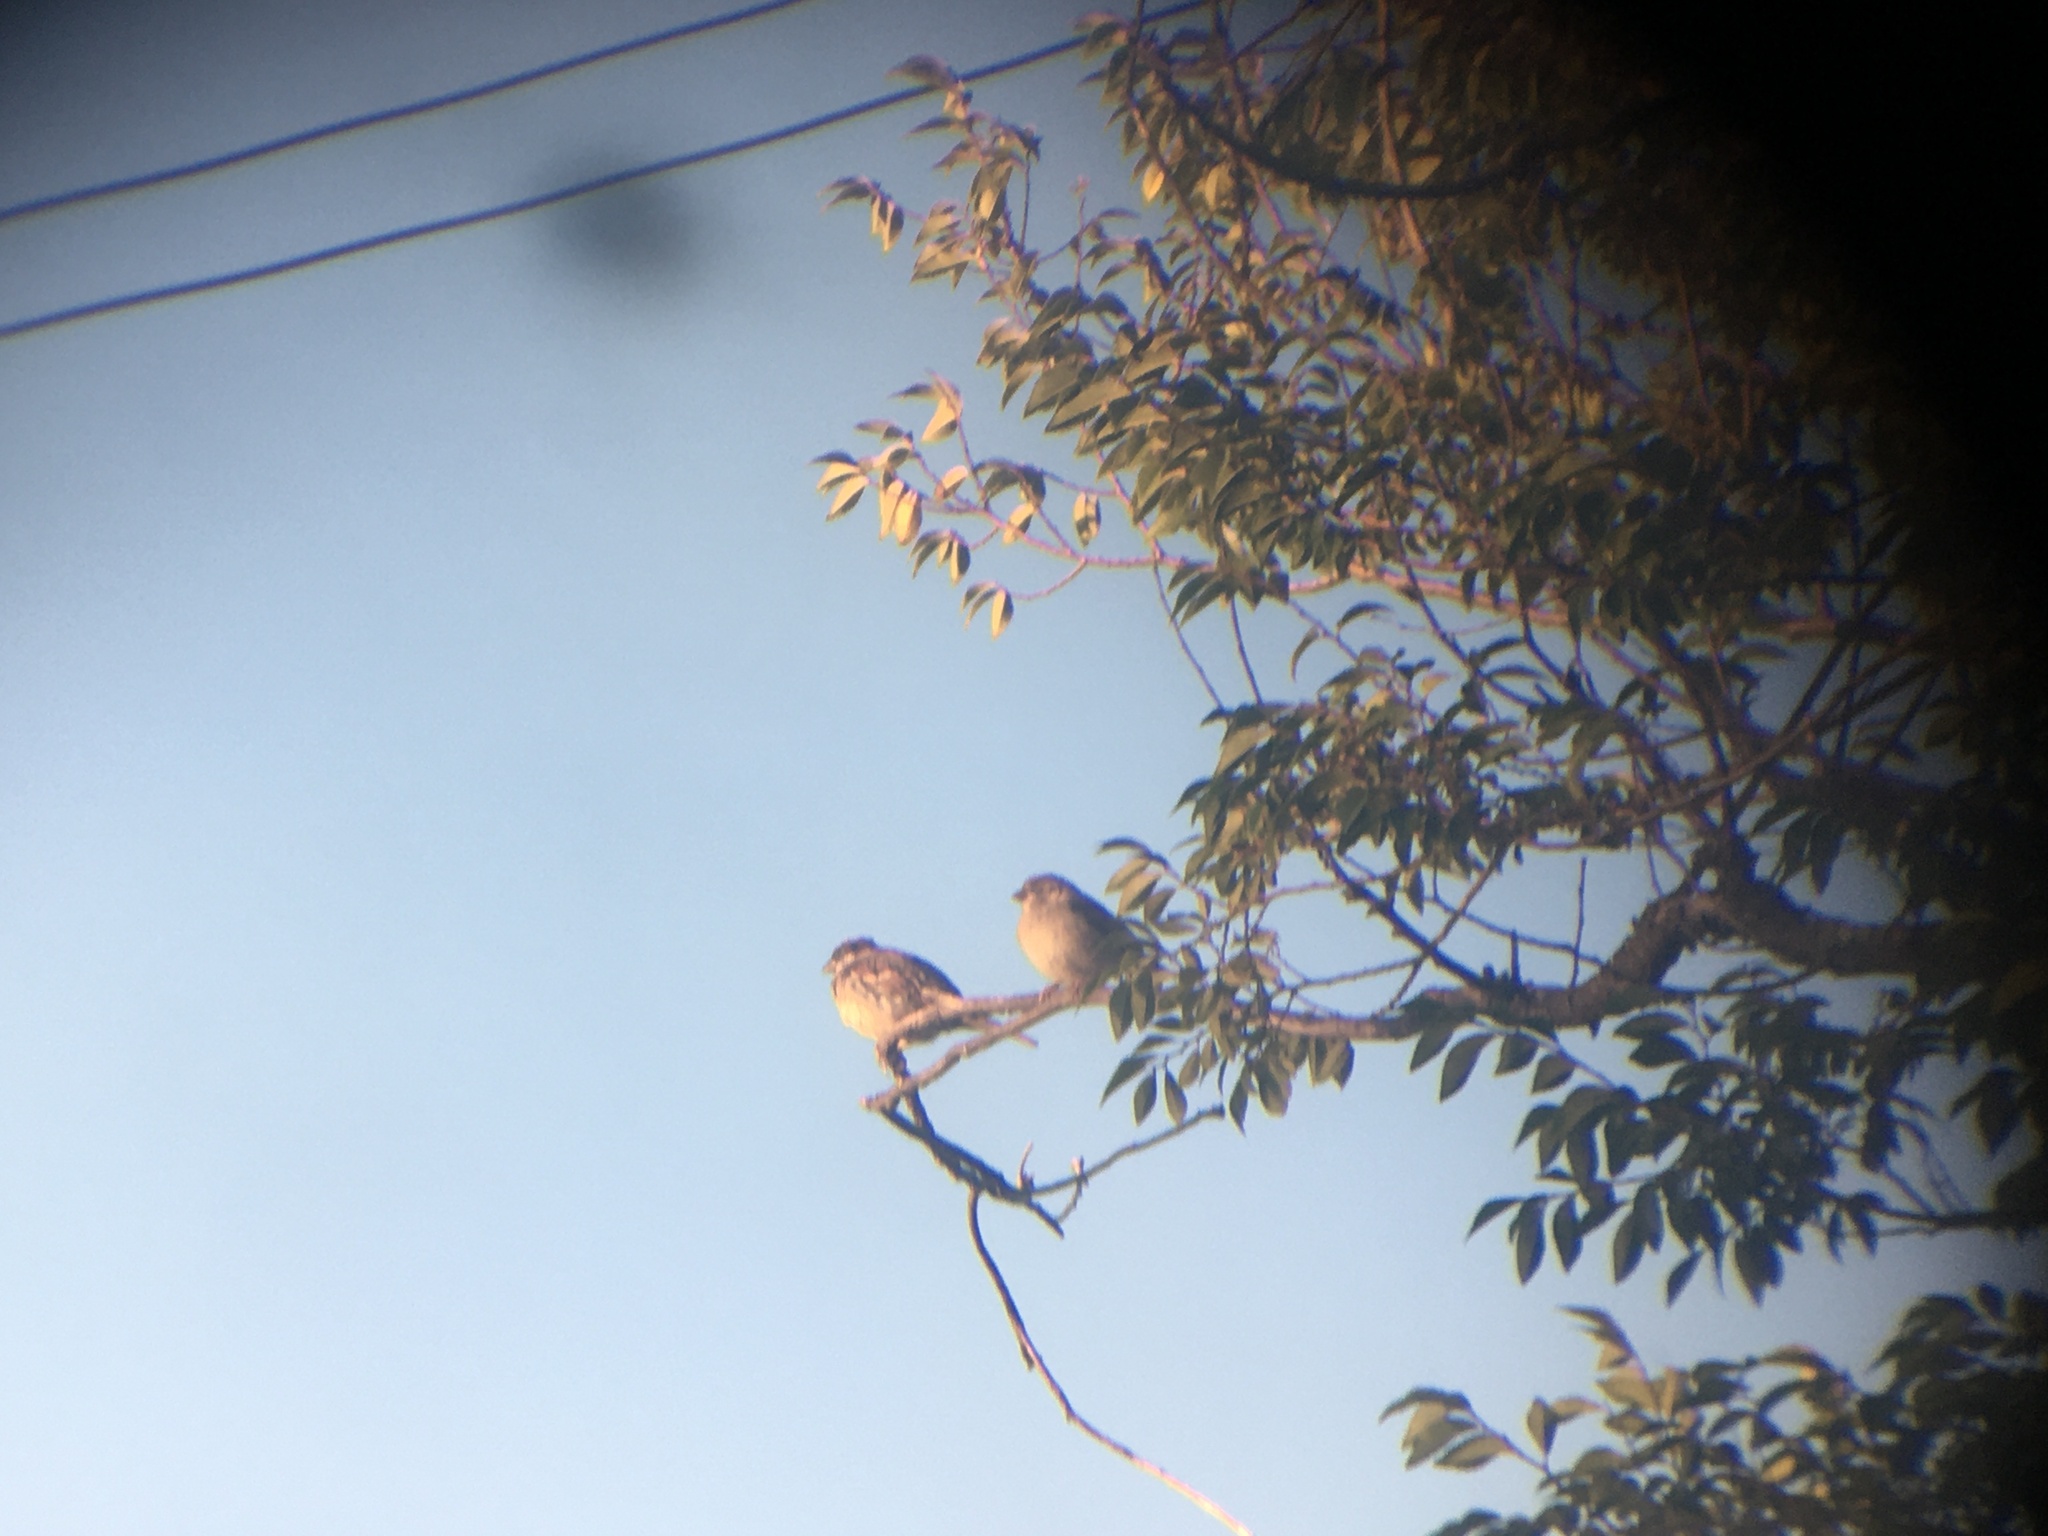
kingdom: Animalia
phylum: Chordata
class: Aves
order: Passeriformes
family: Passeridae
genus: Passer
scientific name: Passer domesticus
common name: House sparrow
